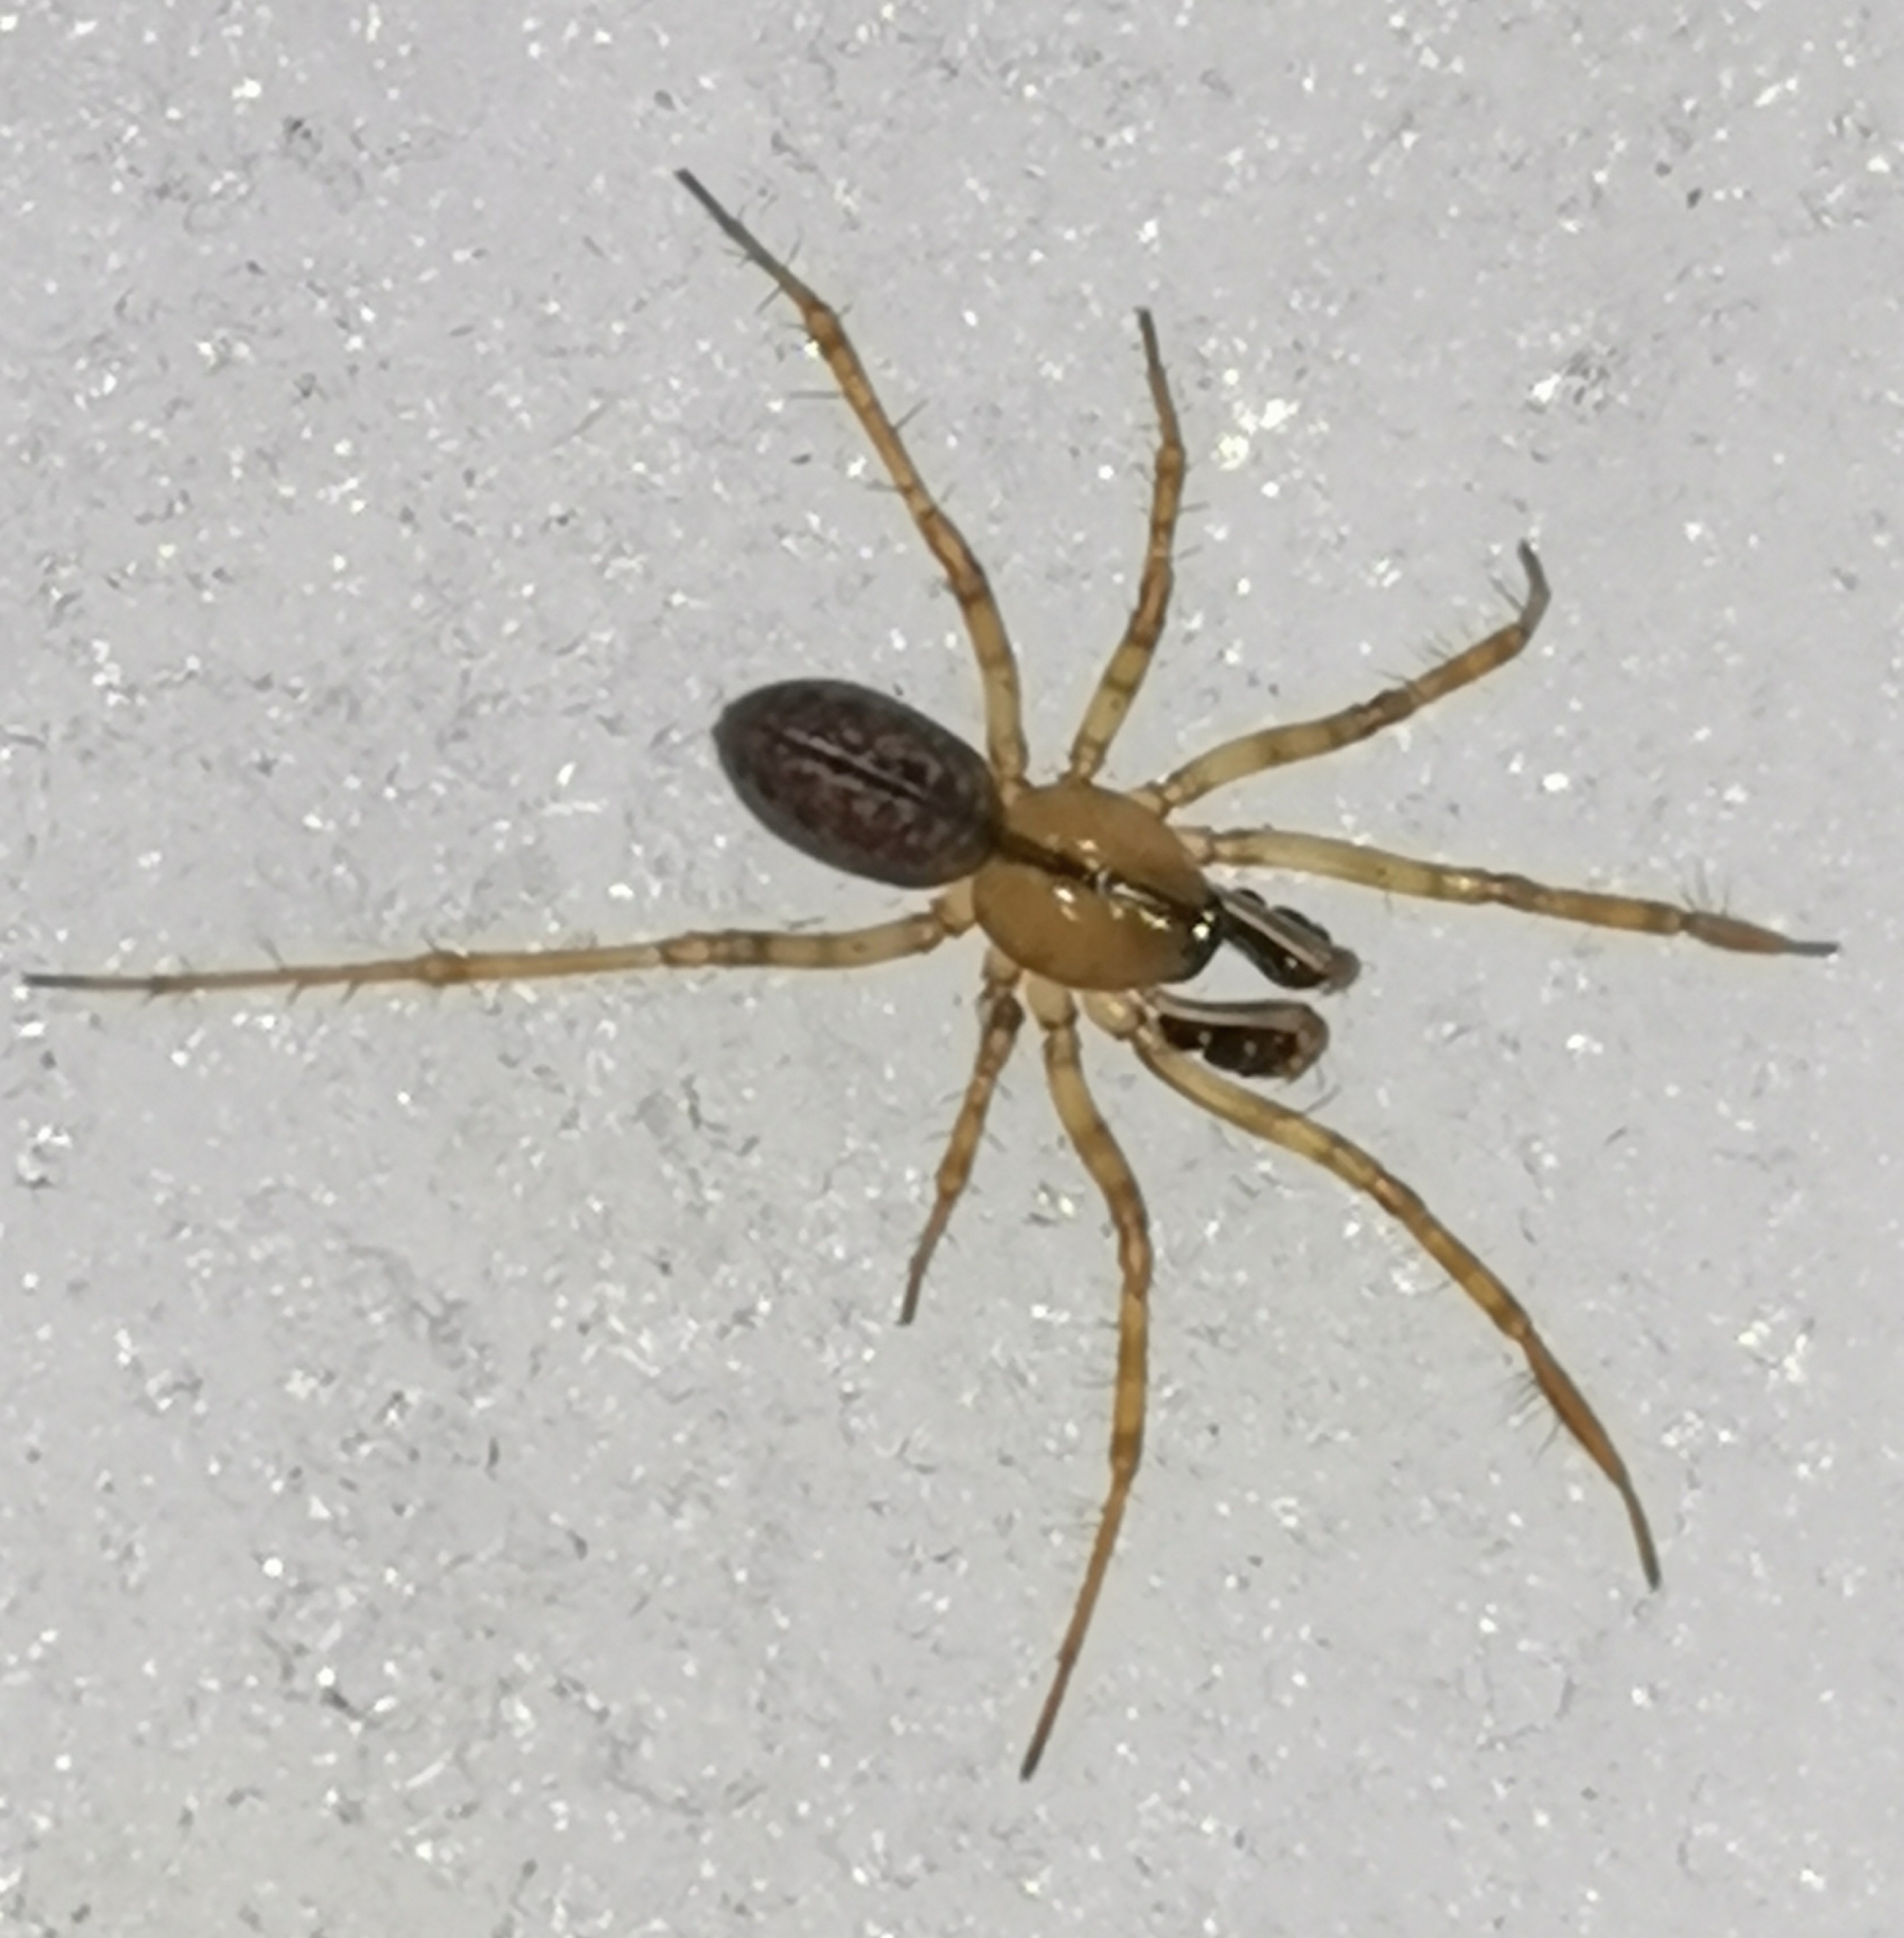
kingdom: Animalia
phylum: Arthropoda
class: Arachnida
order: Araneae
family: Linyphiidae
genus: Stemonyphantes
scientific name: Stemonyphantes lineatus
